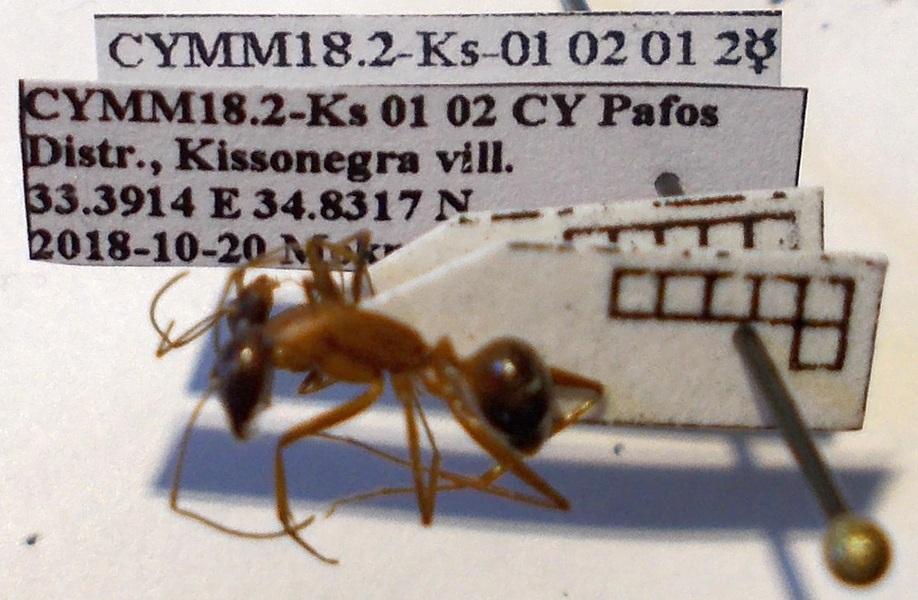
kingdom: Animalia
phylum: Arthropoda
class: Insecta
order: Hymenoptera
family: Formicidae
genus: Camponotus
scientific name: Camponotus sanctus
